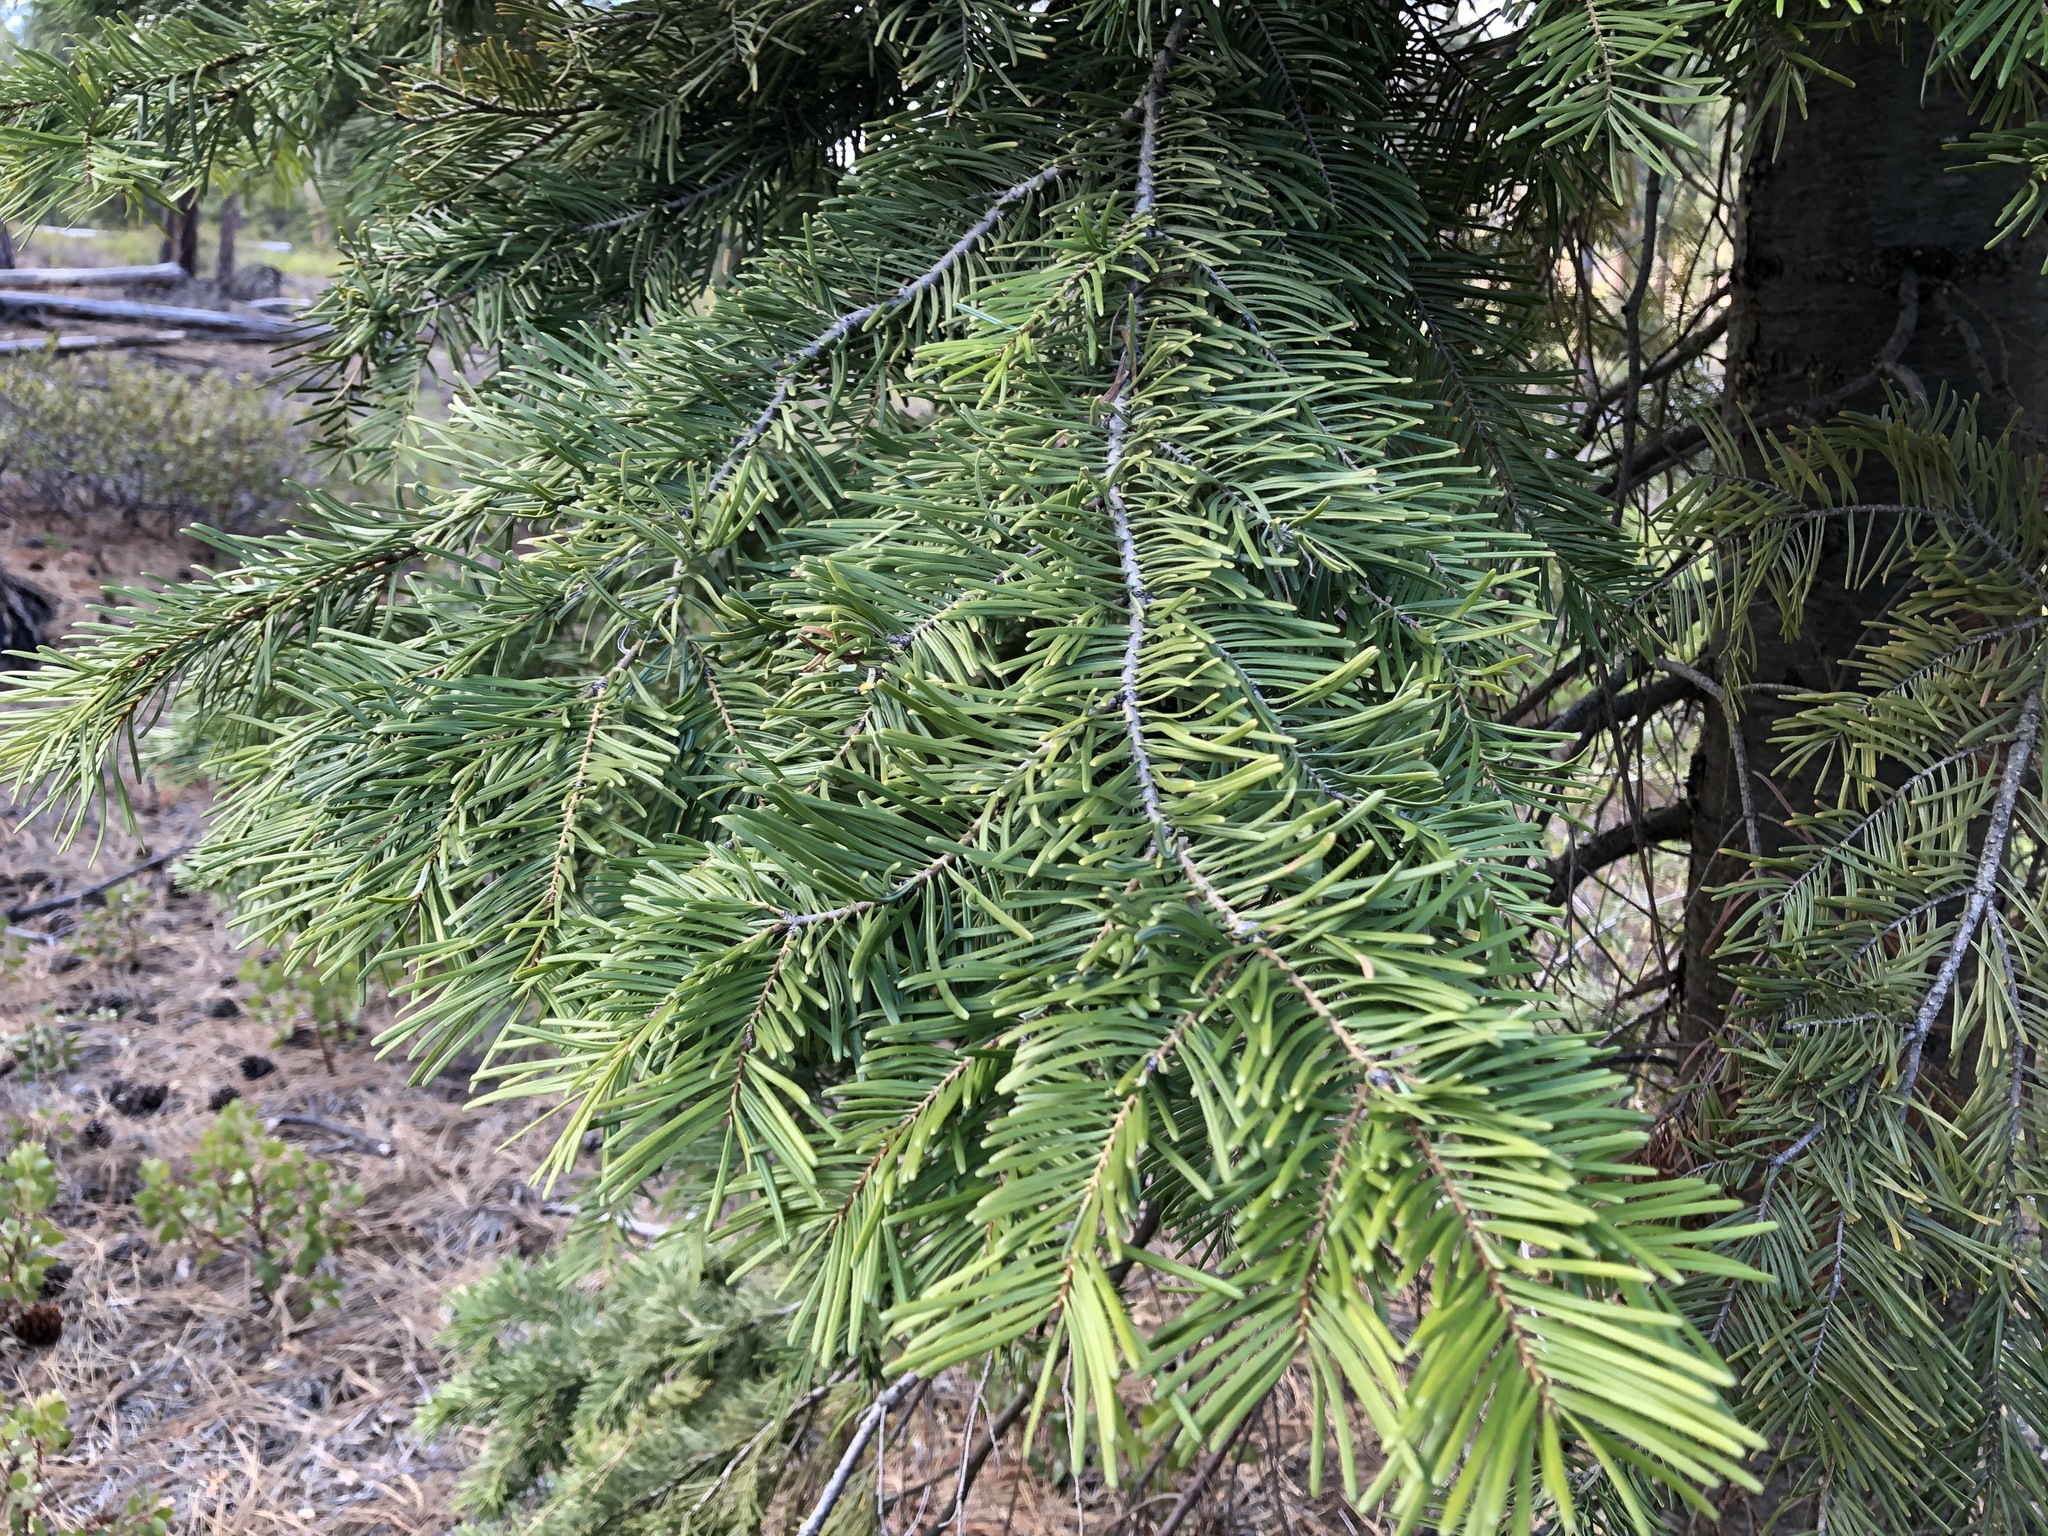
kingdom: Plantae
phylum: Tracheophyta
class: Pinopsida
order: Pinales
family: Pinaceae
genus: Abies
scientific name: Abies concolor
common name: Colorado fir
